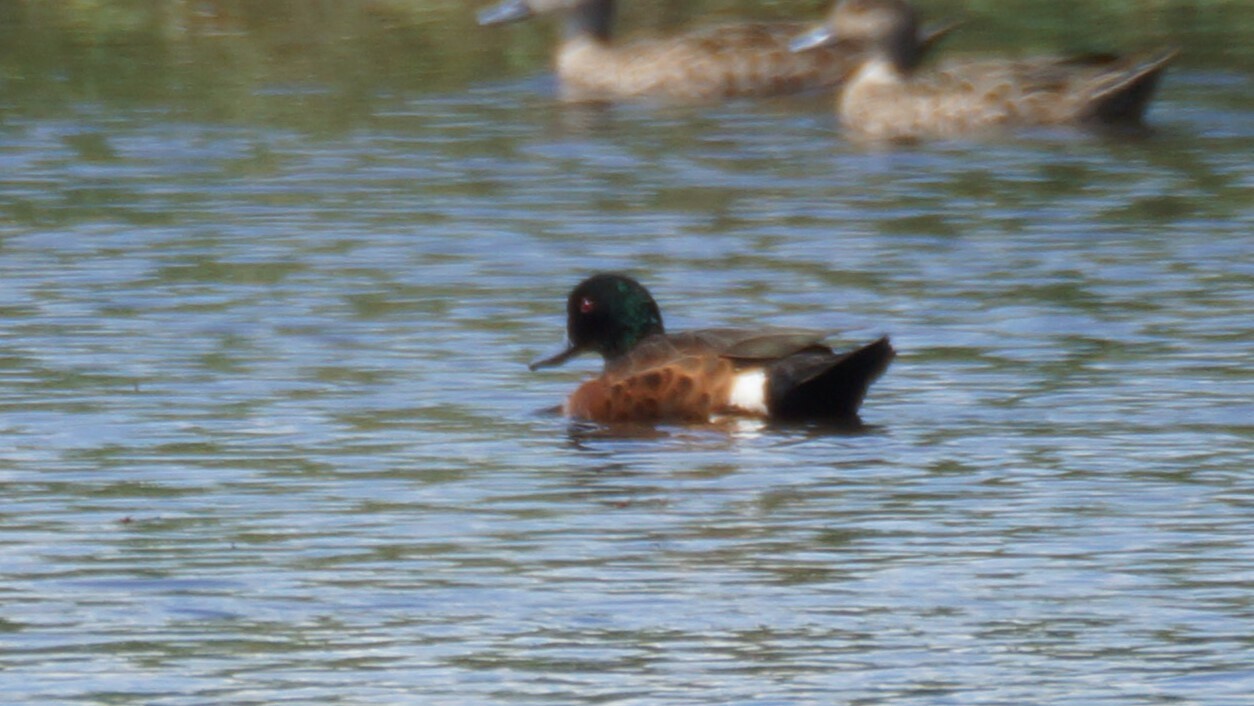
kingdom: Animalia
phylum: Chordata
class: Aves
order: Anseriformes
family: Anatidae
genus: Anas
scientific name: Anas castanea
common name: Chestnut teal
